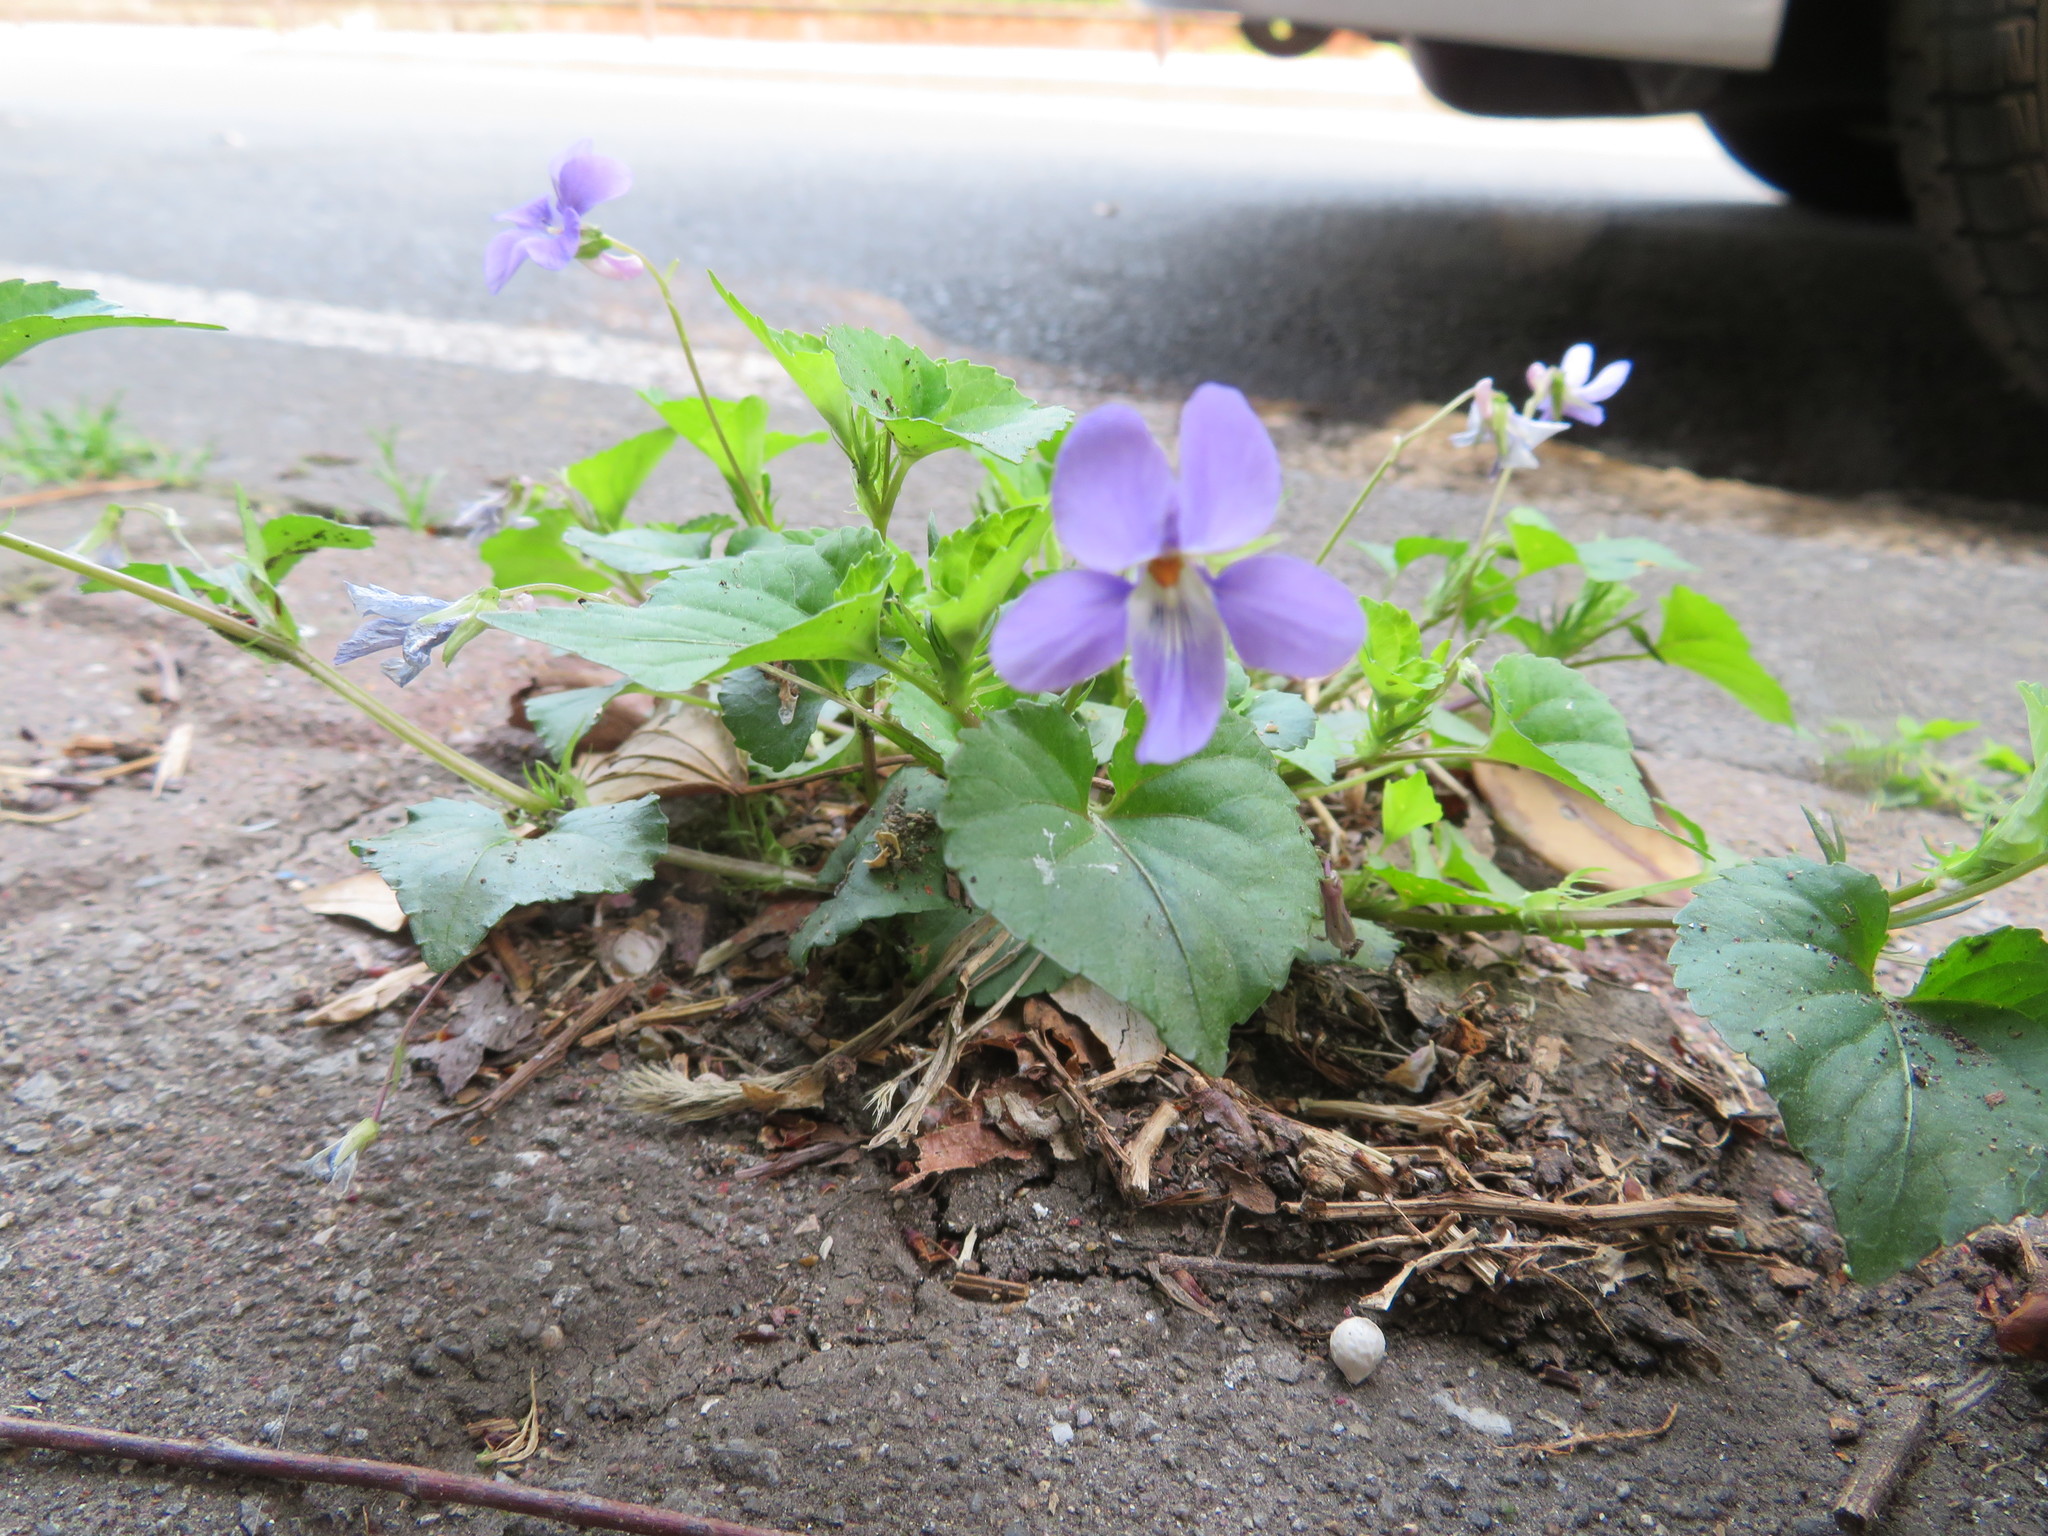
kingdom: Plantae
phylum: Tracheophyta
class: Magnoliopsida
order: Malpighiales
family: Violaceae
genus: Viola
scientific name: Viola grypoceras
